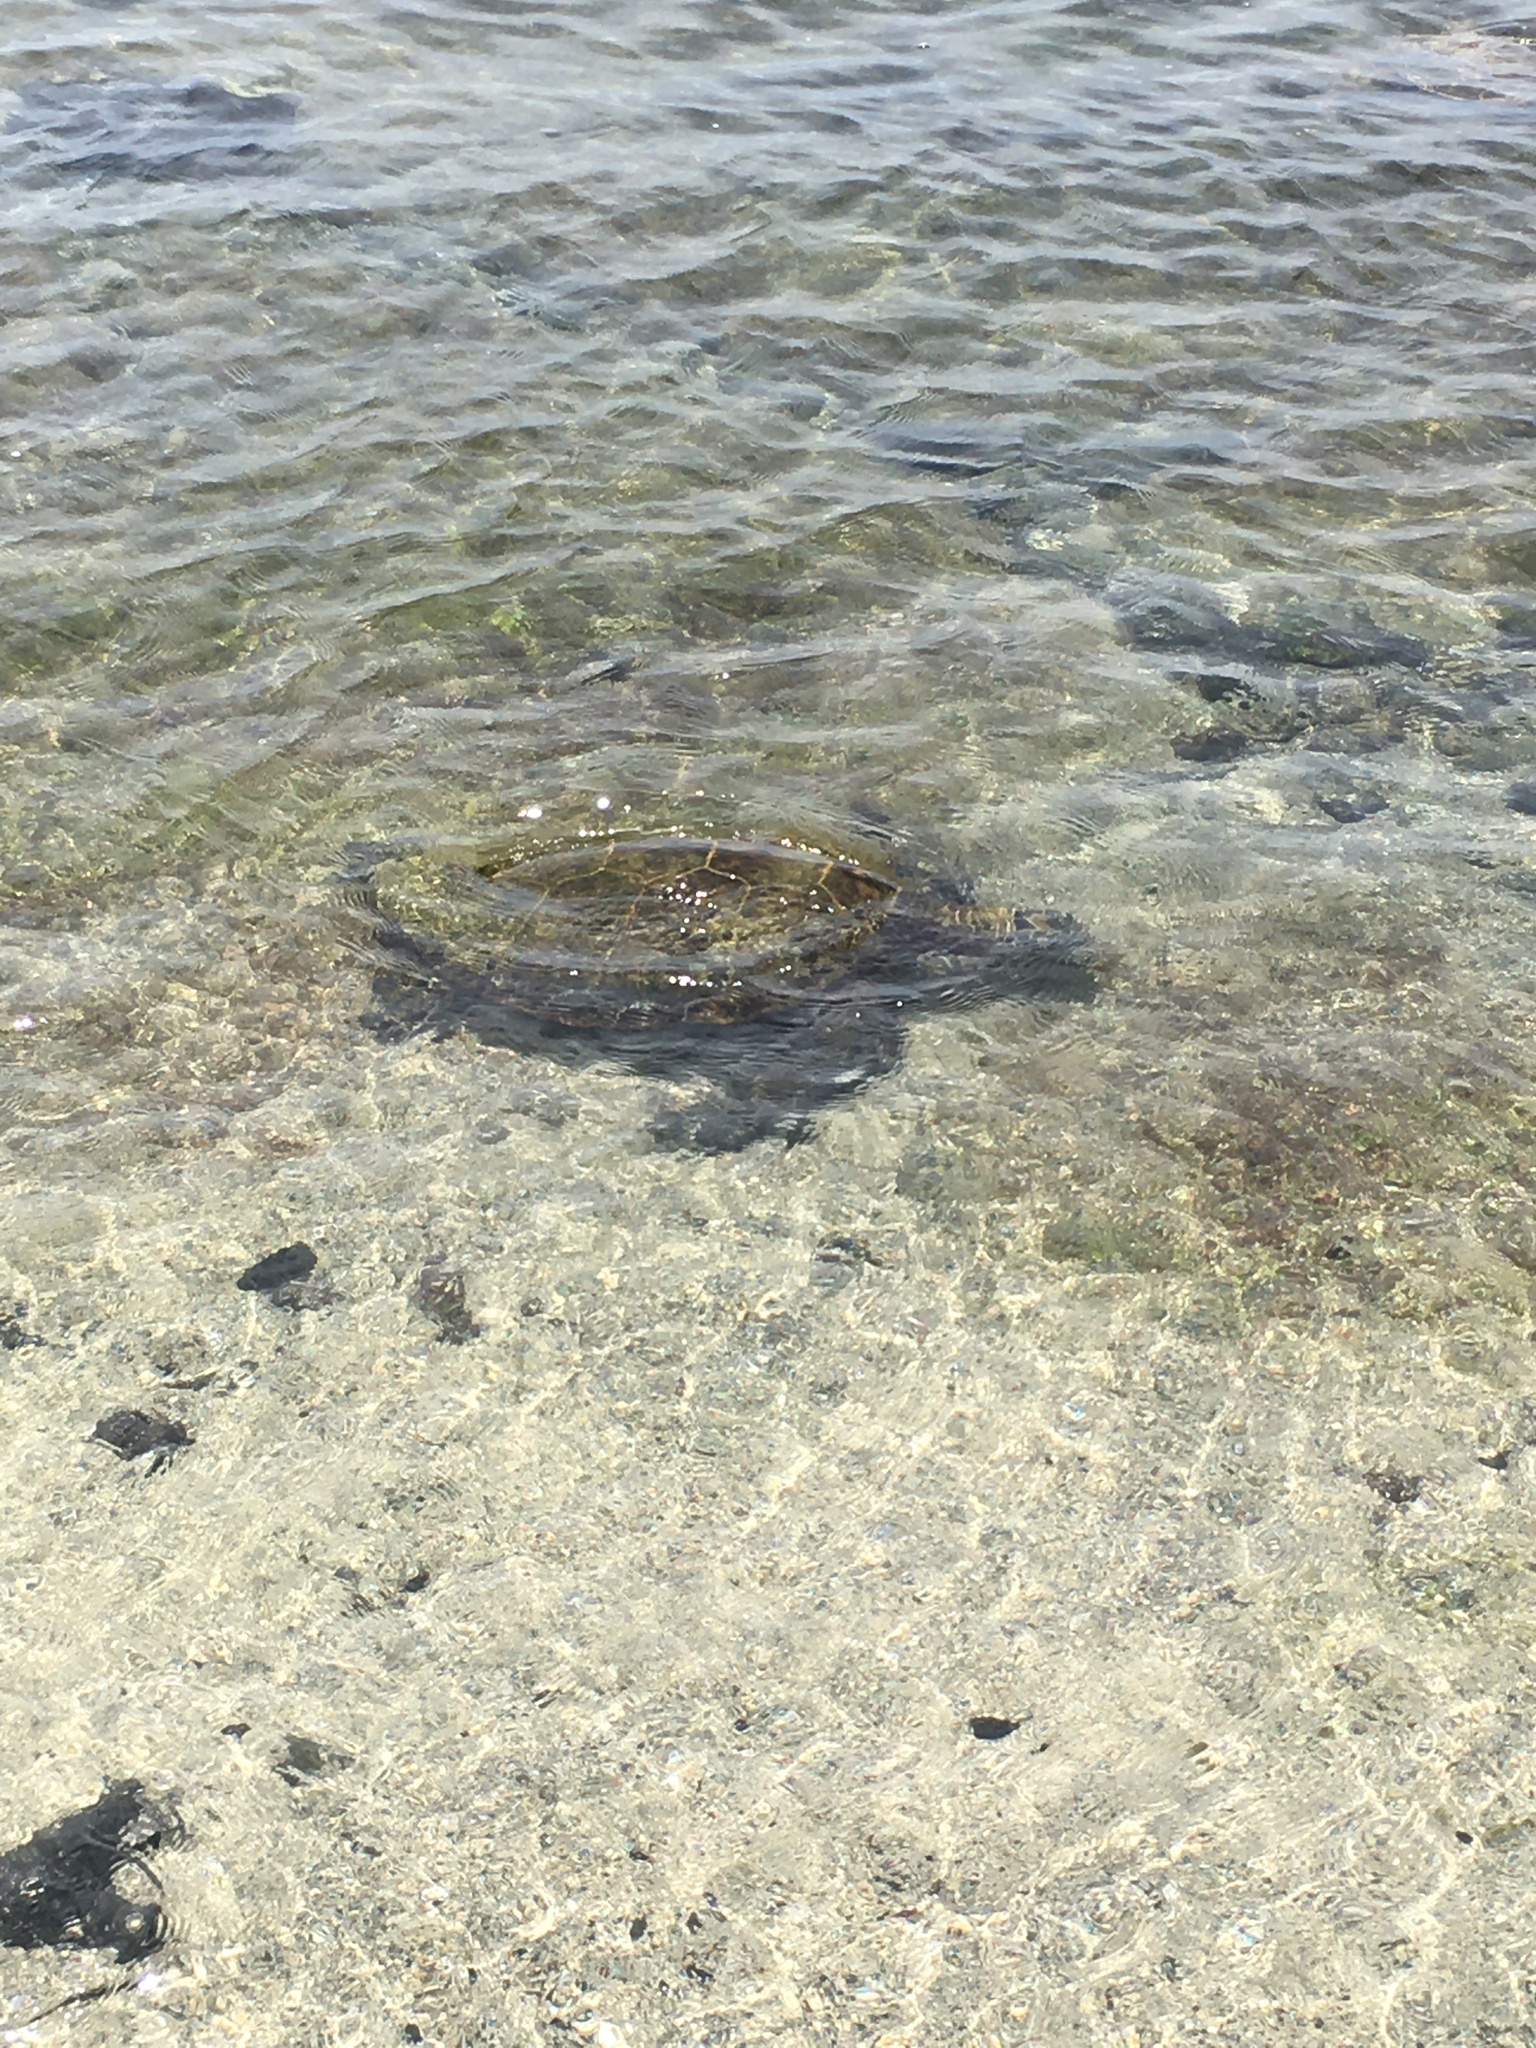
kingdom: Animalia
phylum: Chordata
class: Testudines
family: Cheloniidae
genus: Chelonia
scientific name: Chelonia mydas
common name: Green turtle
